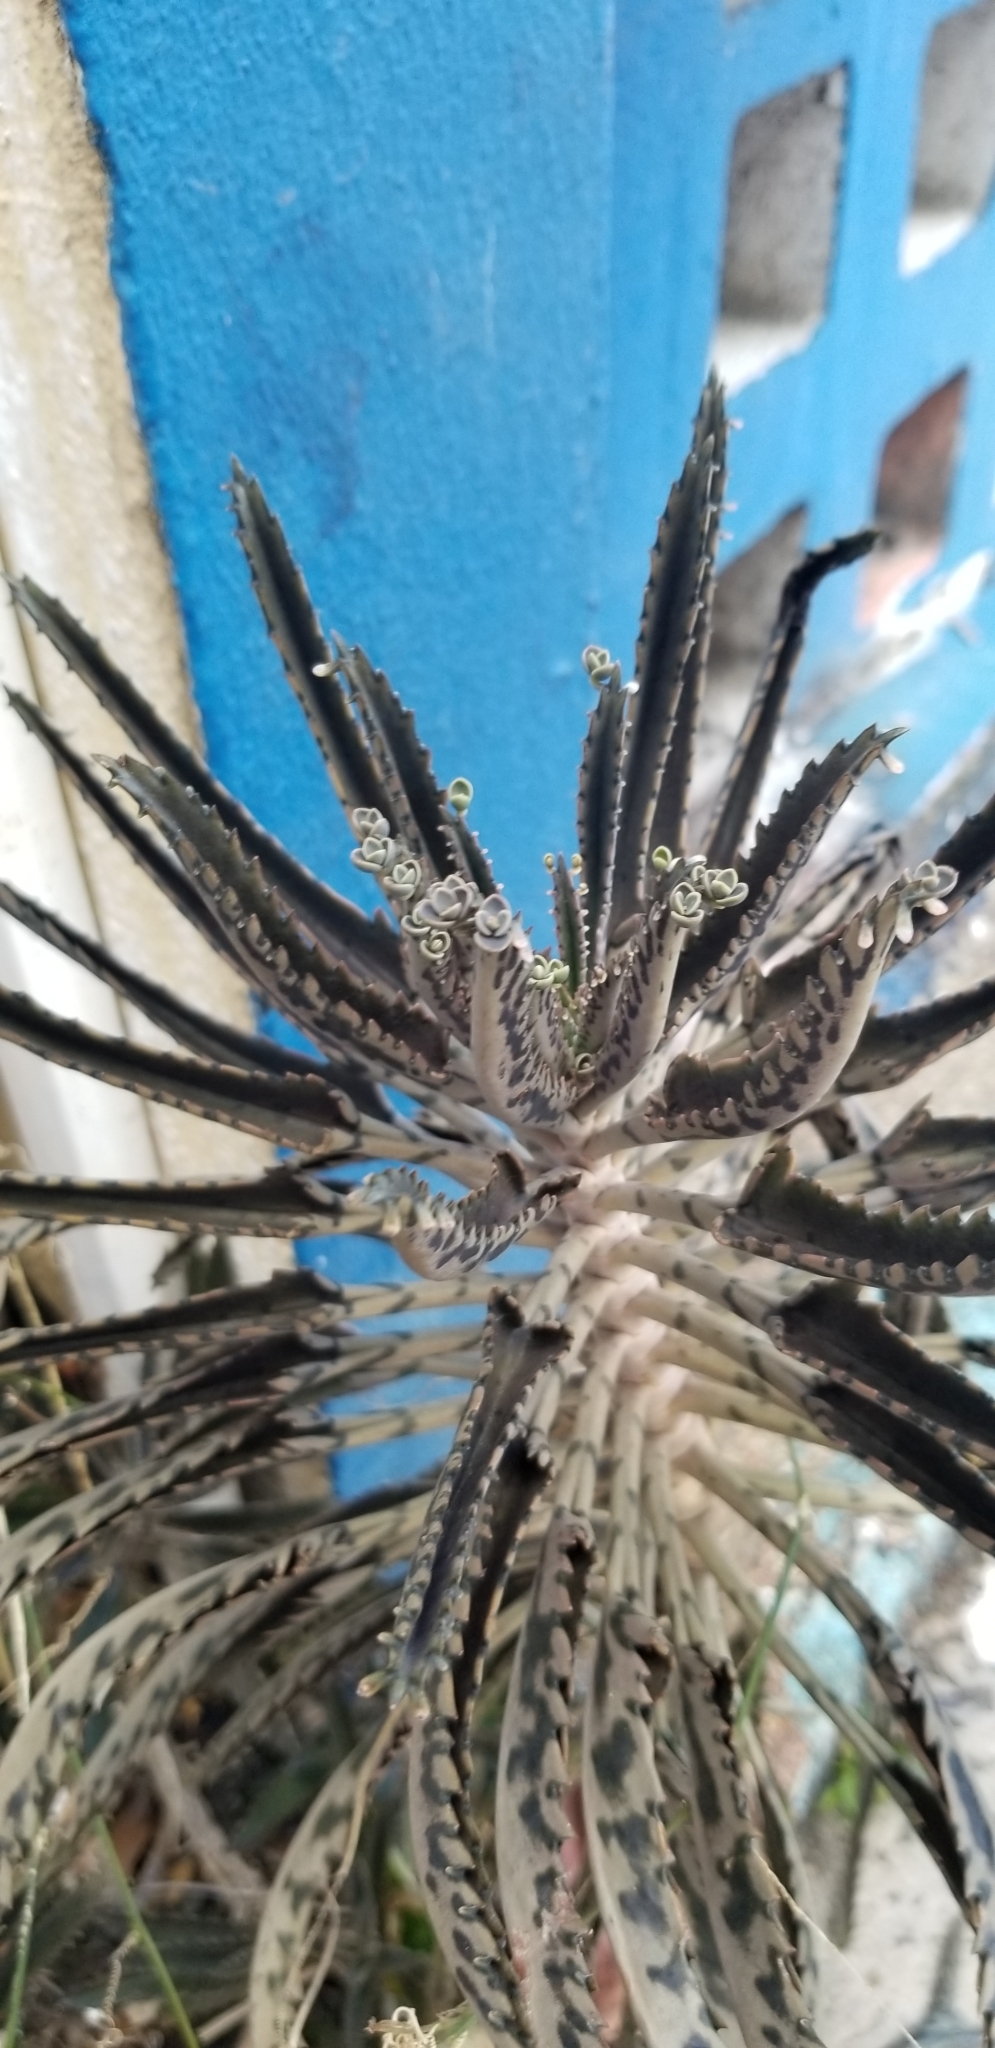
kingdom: Plantae
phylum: Tracheophyta
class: Magnoliopsida
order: Saxifragales
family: Crassulaceae
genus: Kalanchoe
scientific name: Kalanchoe houghtonii
